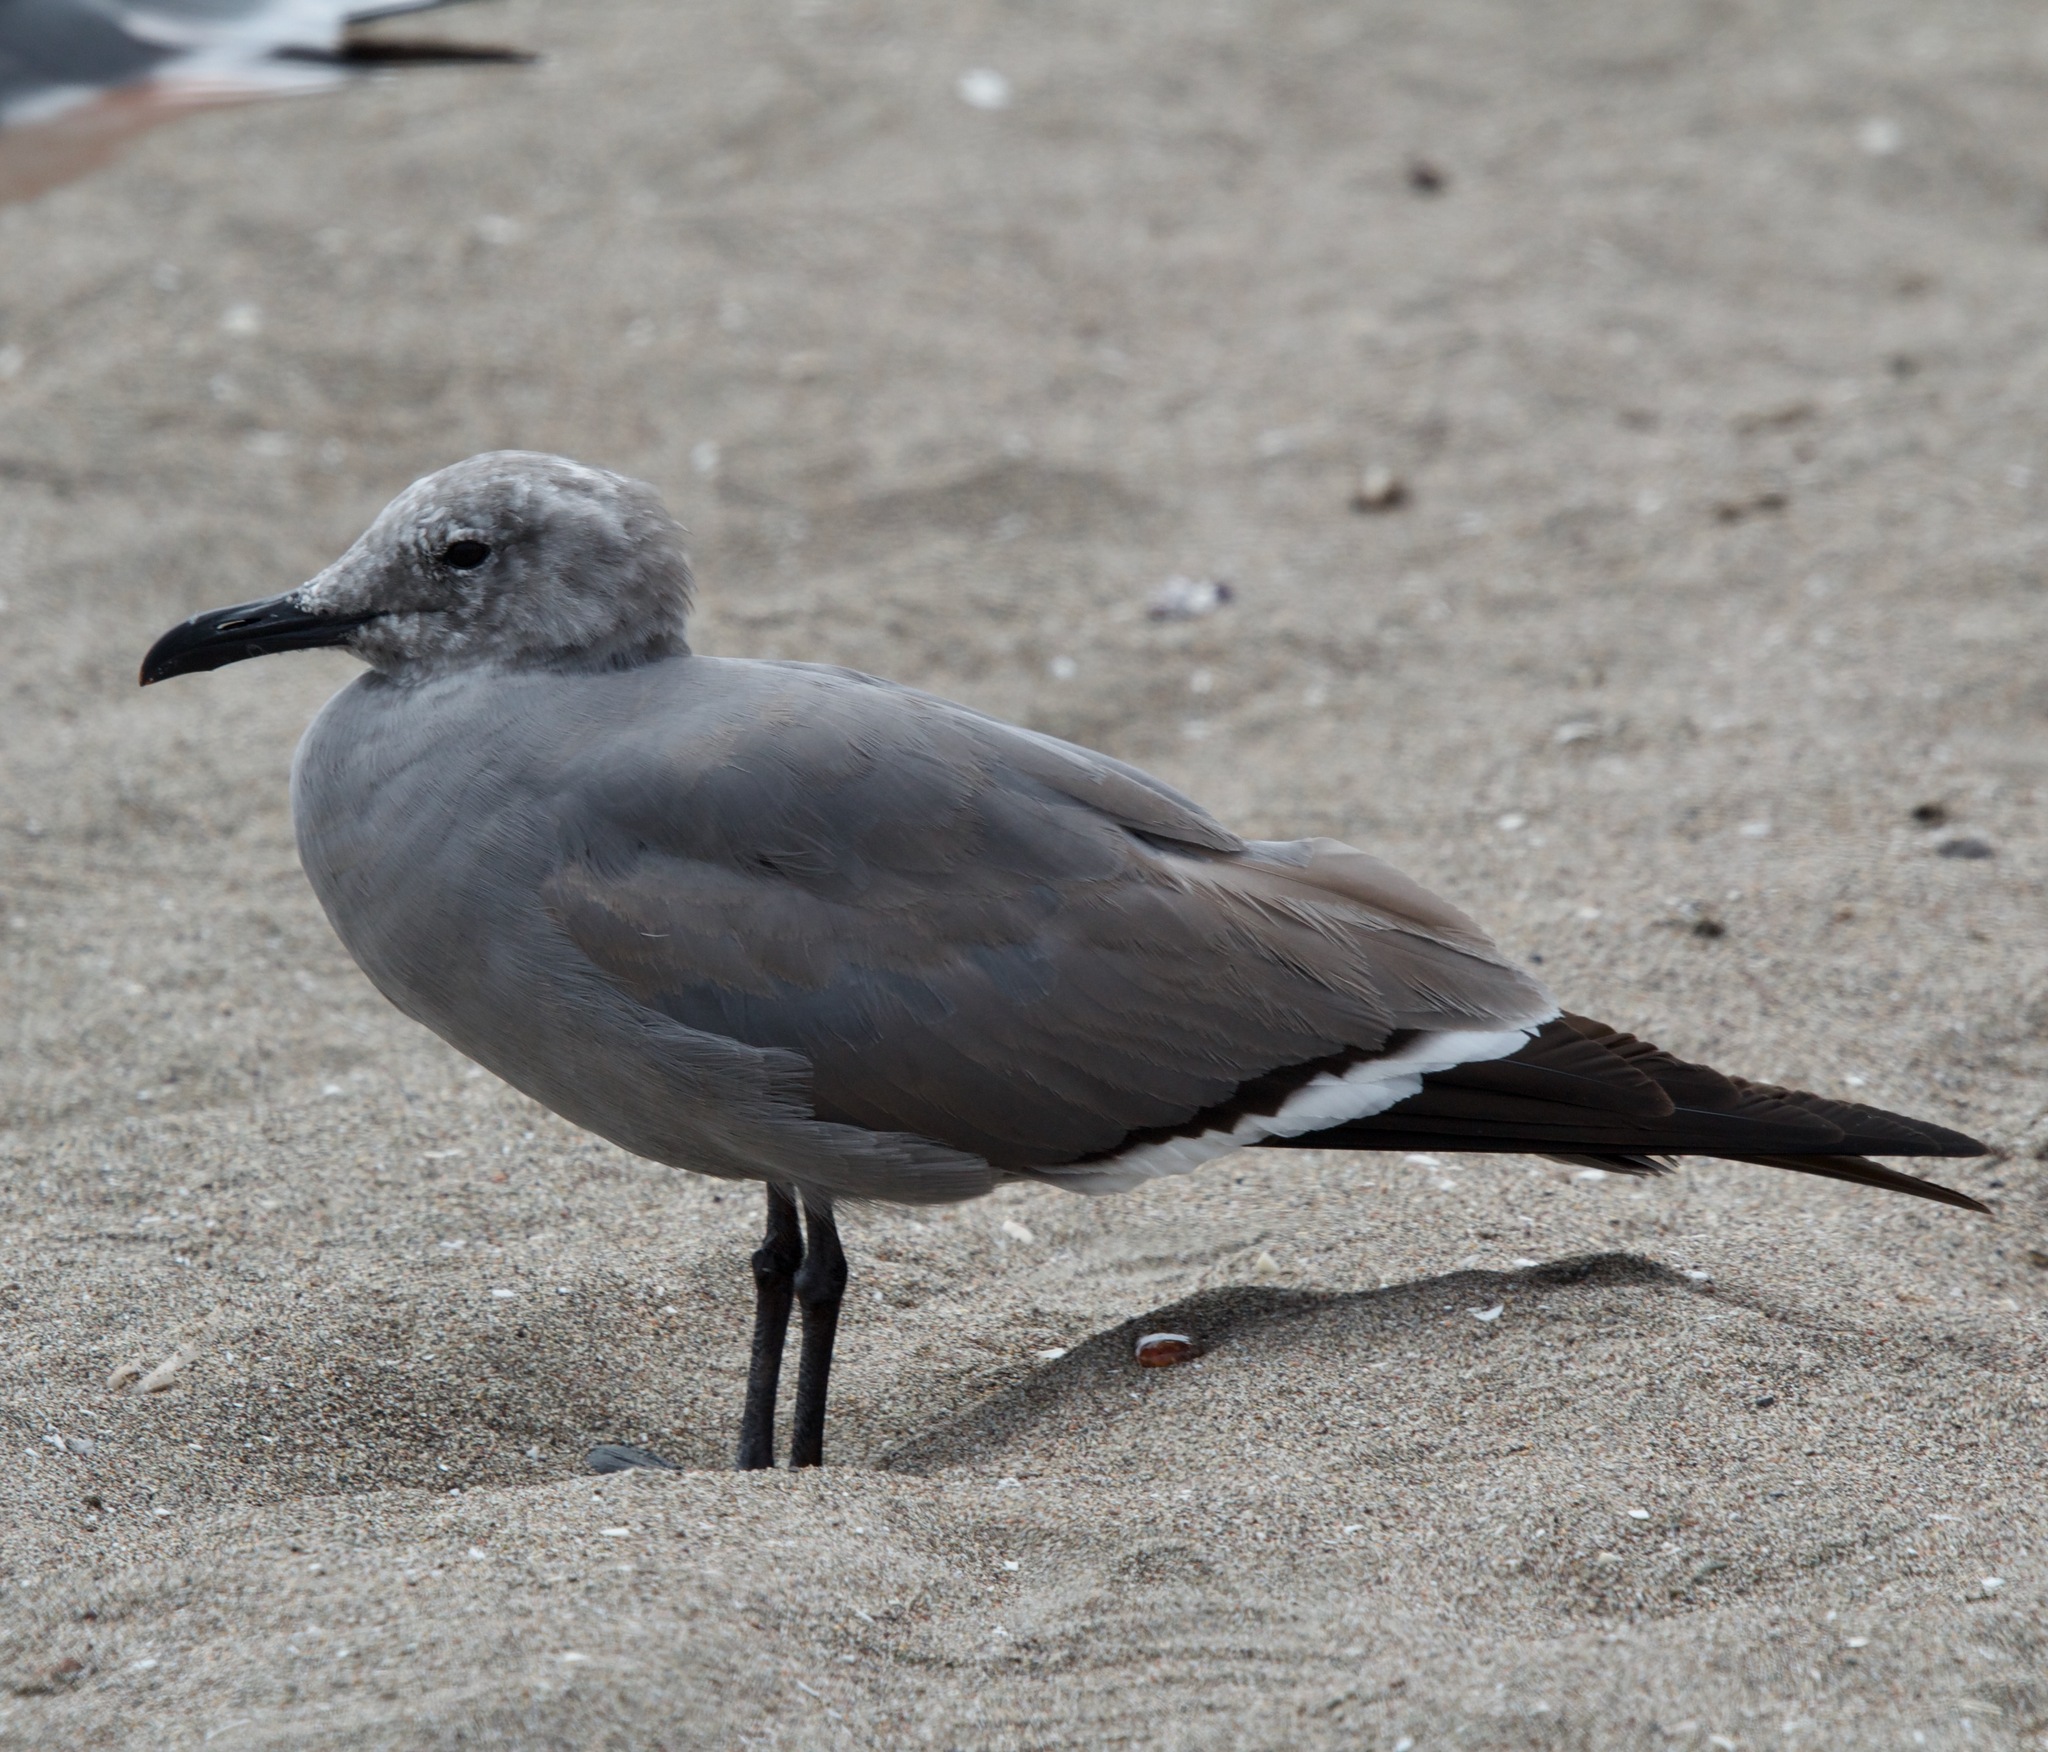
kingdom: Animalia
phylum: Chordata
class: Aves
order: Charadriiformes
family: Laridae
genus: Leucophaeus
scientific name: Leucophaeus modestus
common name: Gray gull
